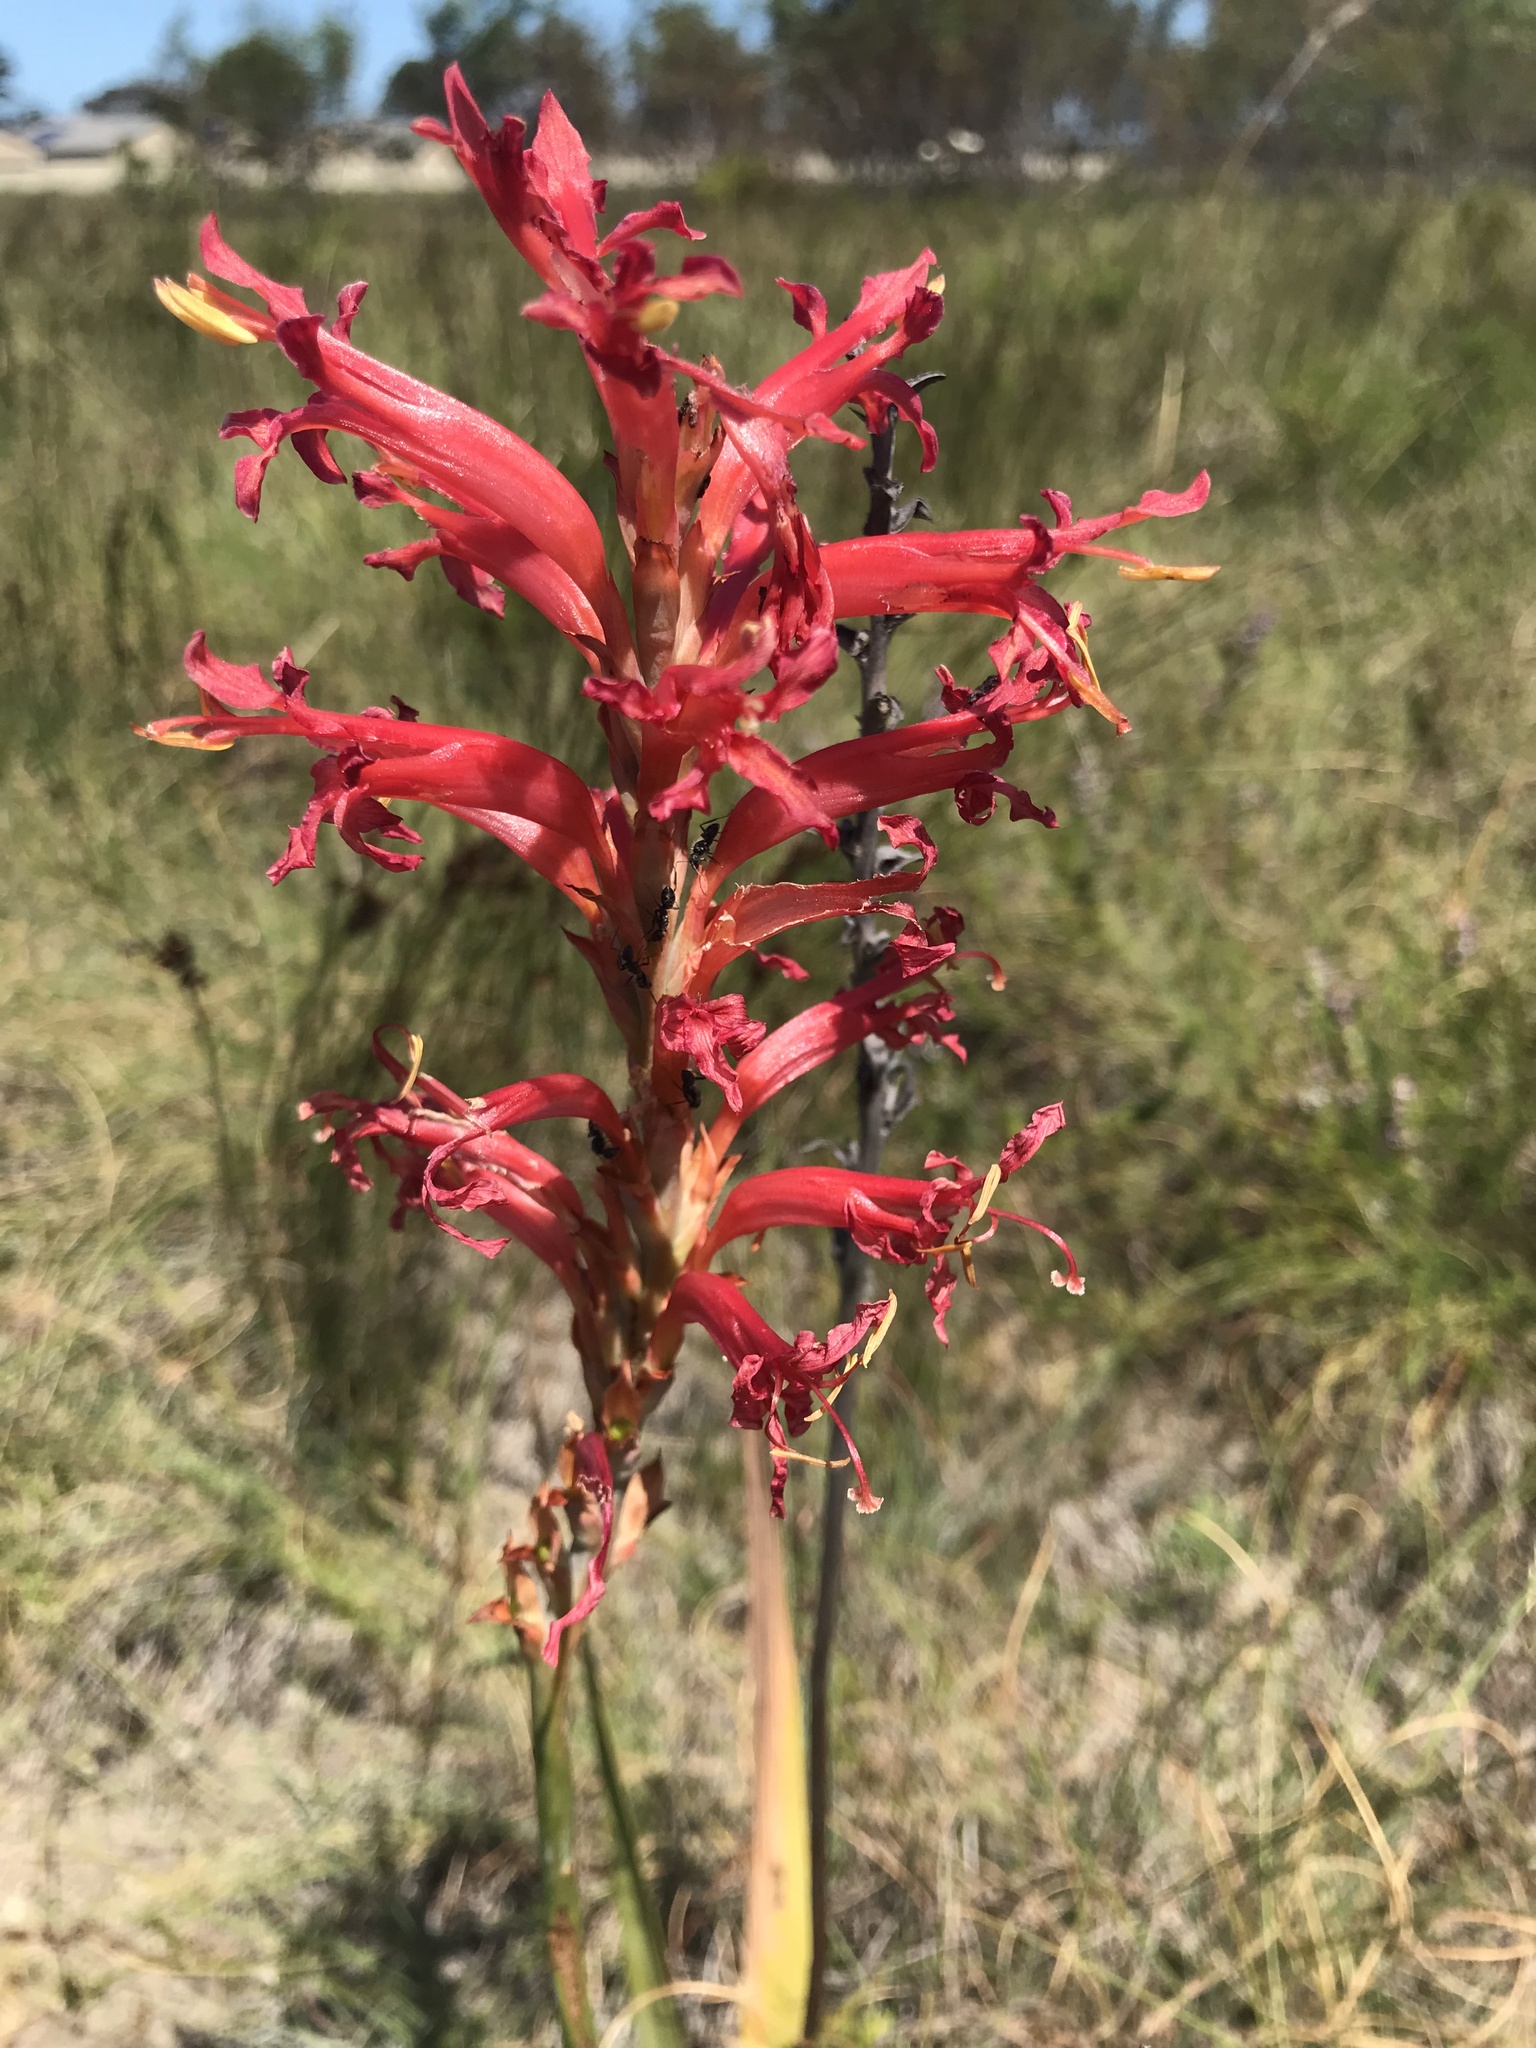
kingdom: Plantae
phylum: Tracheophyta
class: Liliopsida
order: Asparagales
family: Iridaceae
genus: Tritoniopsis
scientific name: Tritoniopsis antholyza
